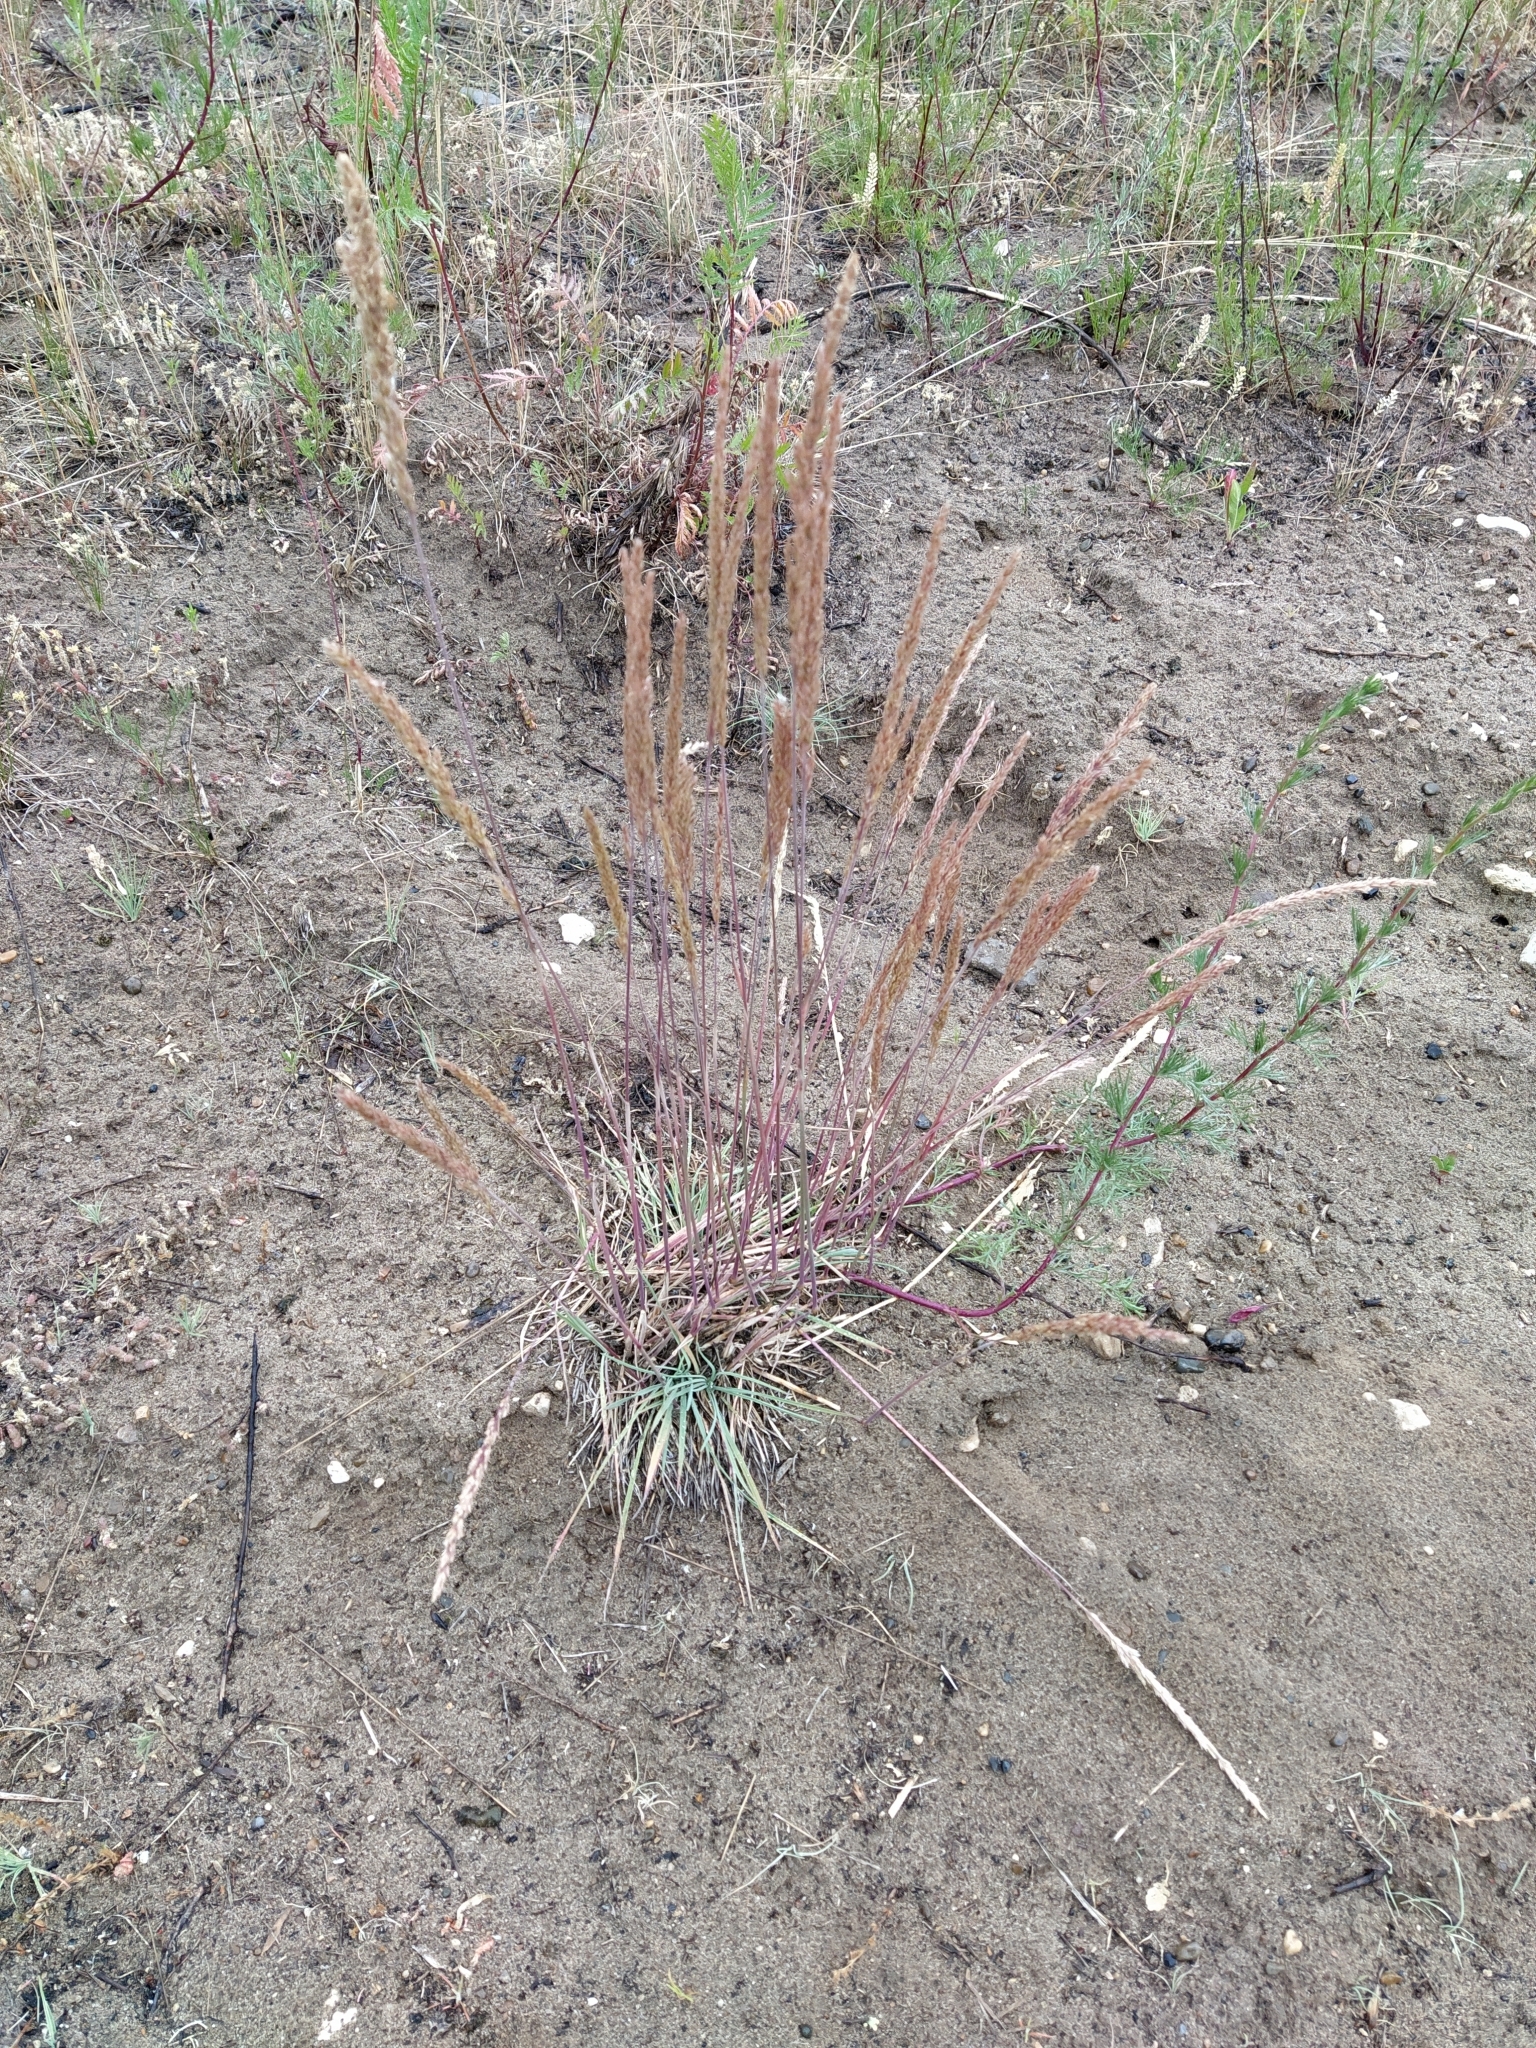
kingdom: Plantae
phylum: Tracheophyta
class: Liliopsida
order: Poales
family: Poaceae
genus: Koeleria
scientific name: Koeleria glauca
